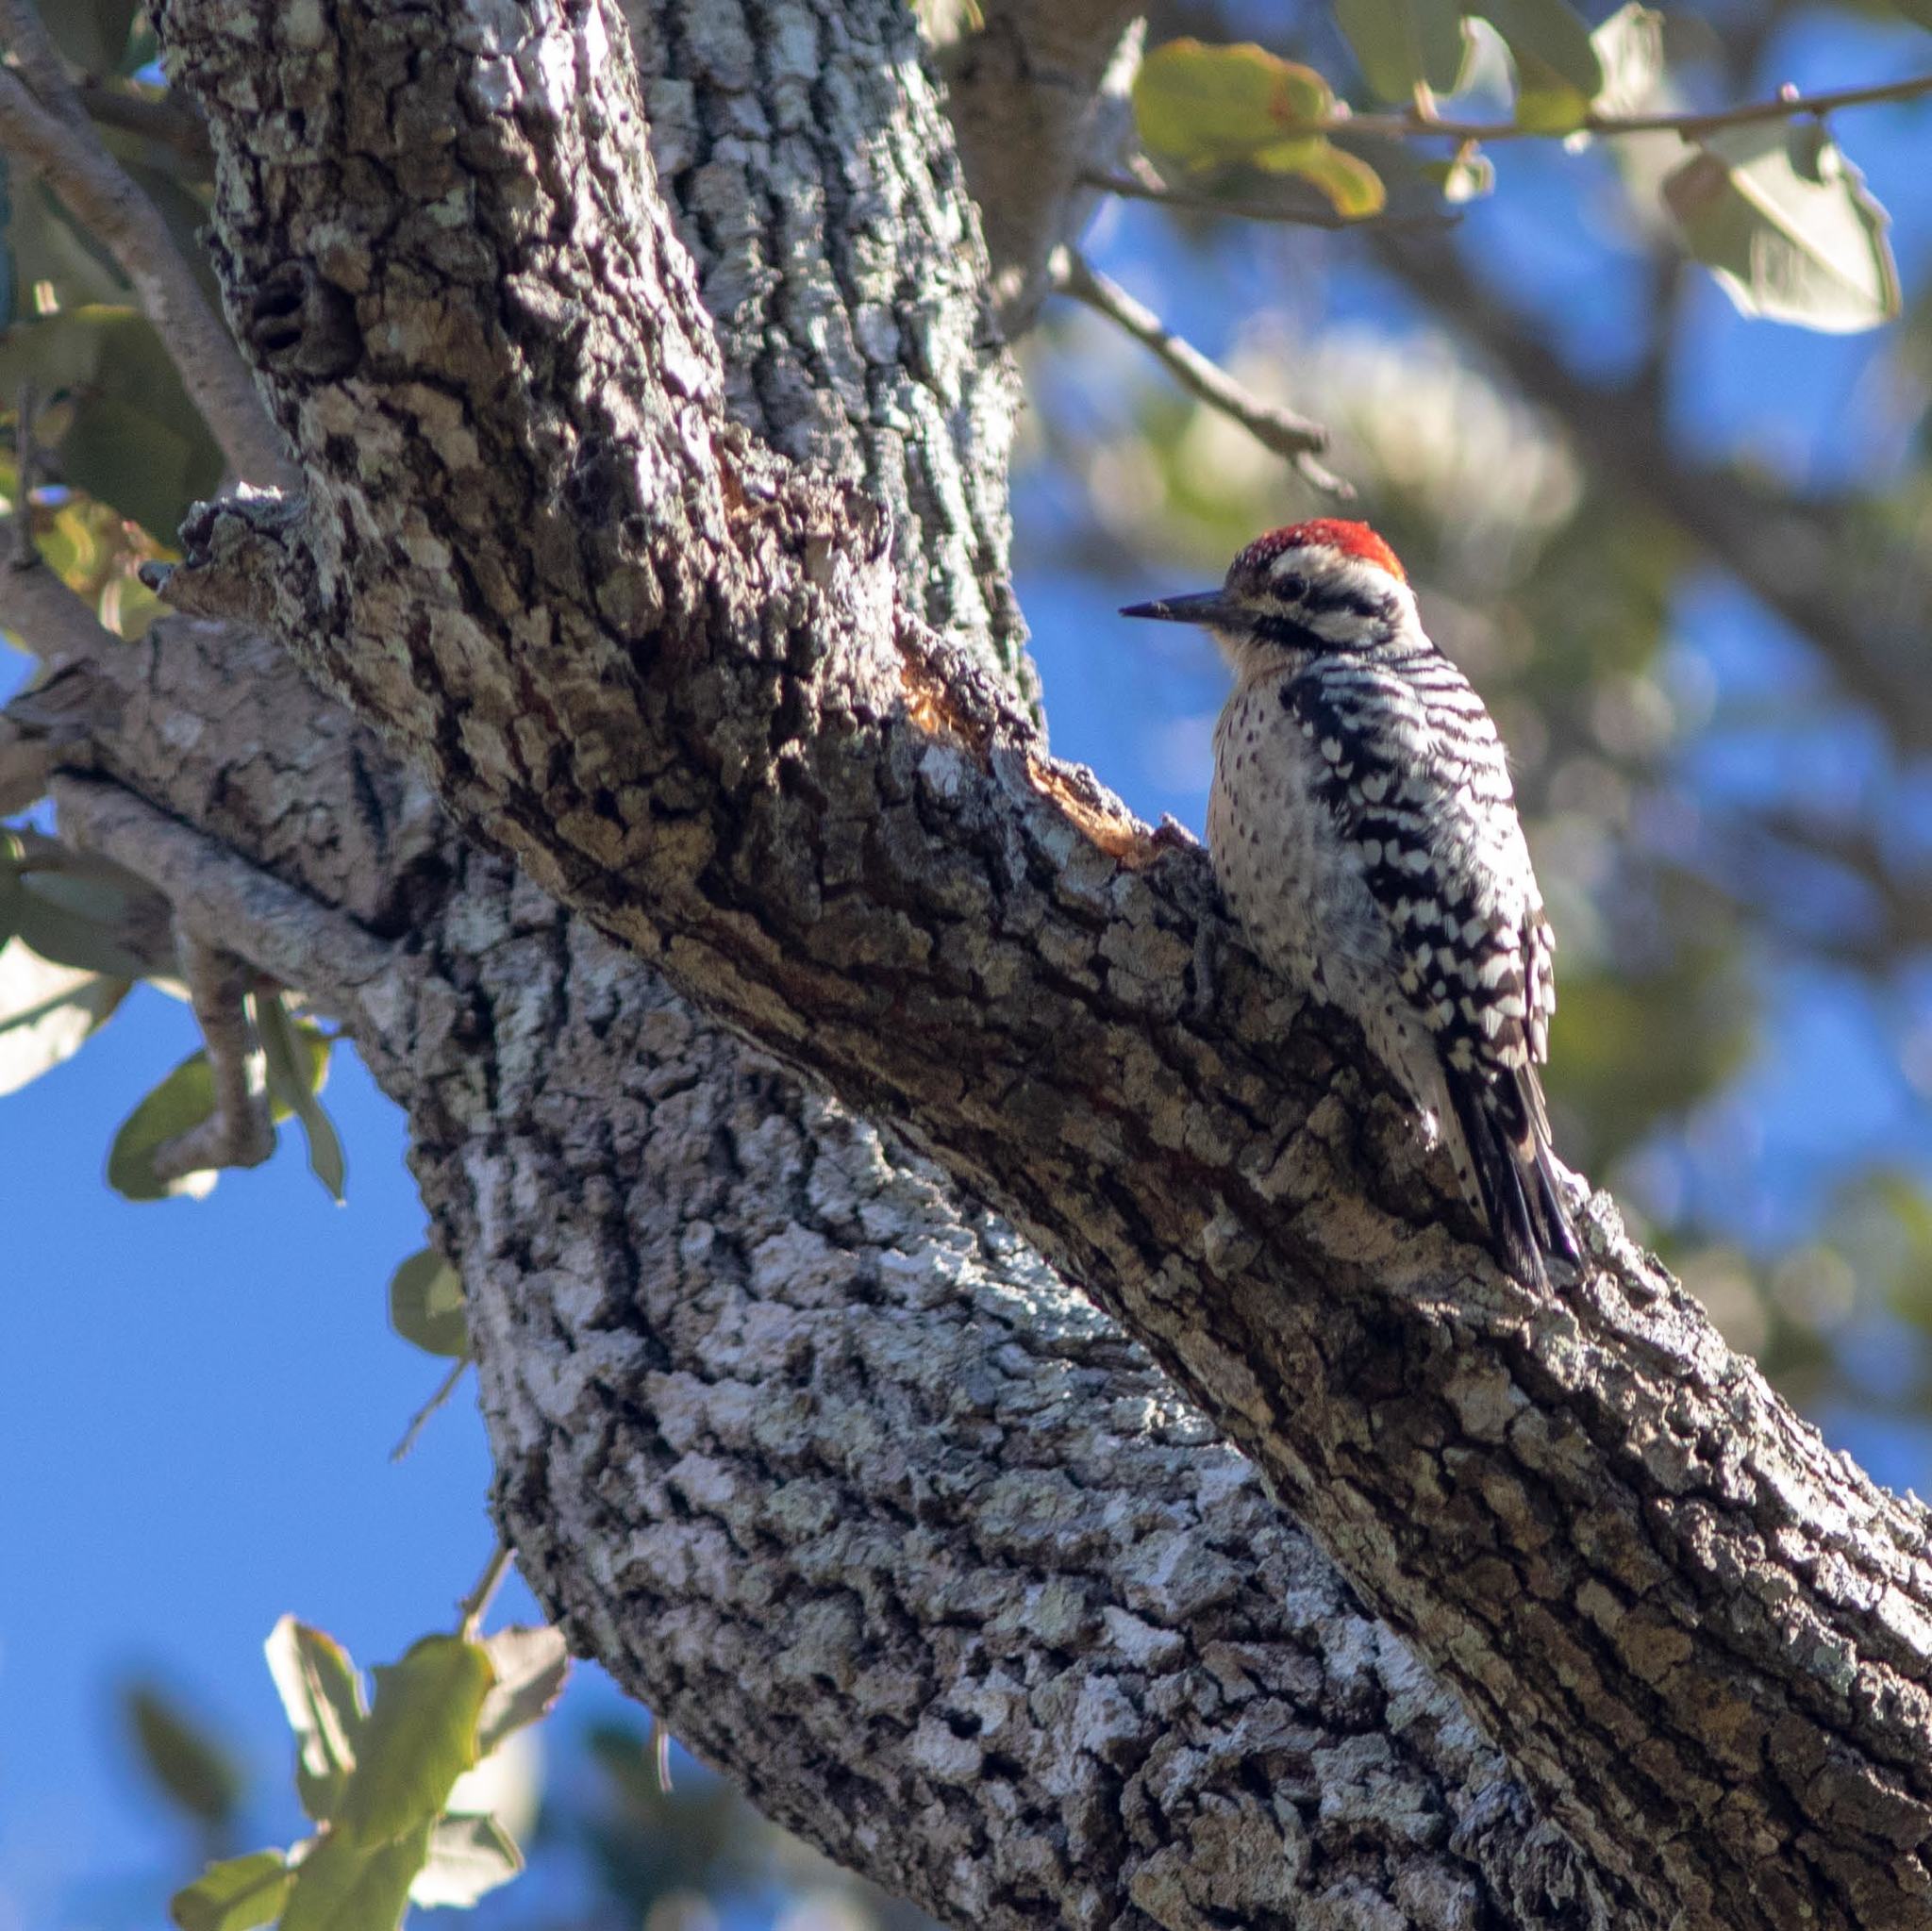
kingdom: Animalia
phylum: Chordata
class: Aves
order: Piciformes
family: Picidae
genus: Dryobates
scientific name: Dryobates scalaris
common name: Ladder-backed woodpecker
